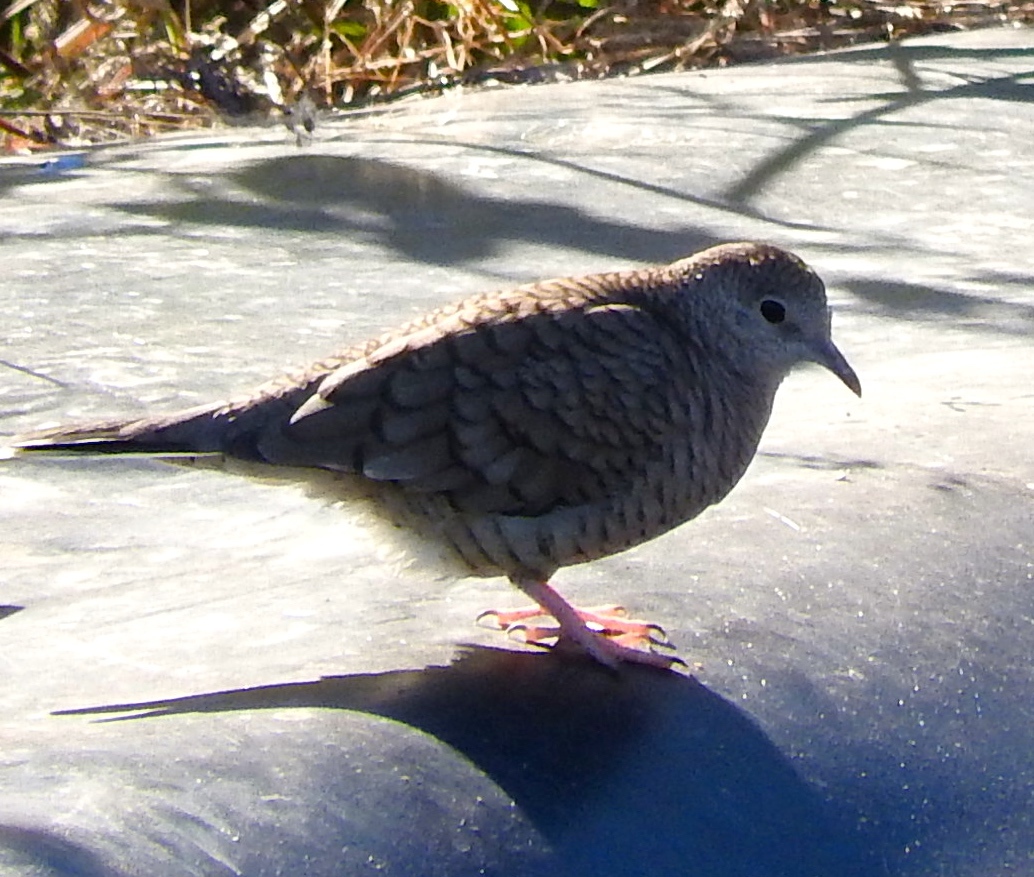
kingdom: Animalia
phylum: Chordata
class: Aves
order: Columbiformes
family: Columbidae
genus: Columbina
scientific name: Columbina inca
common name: Inca dove
